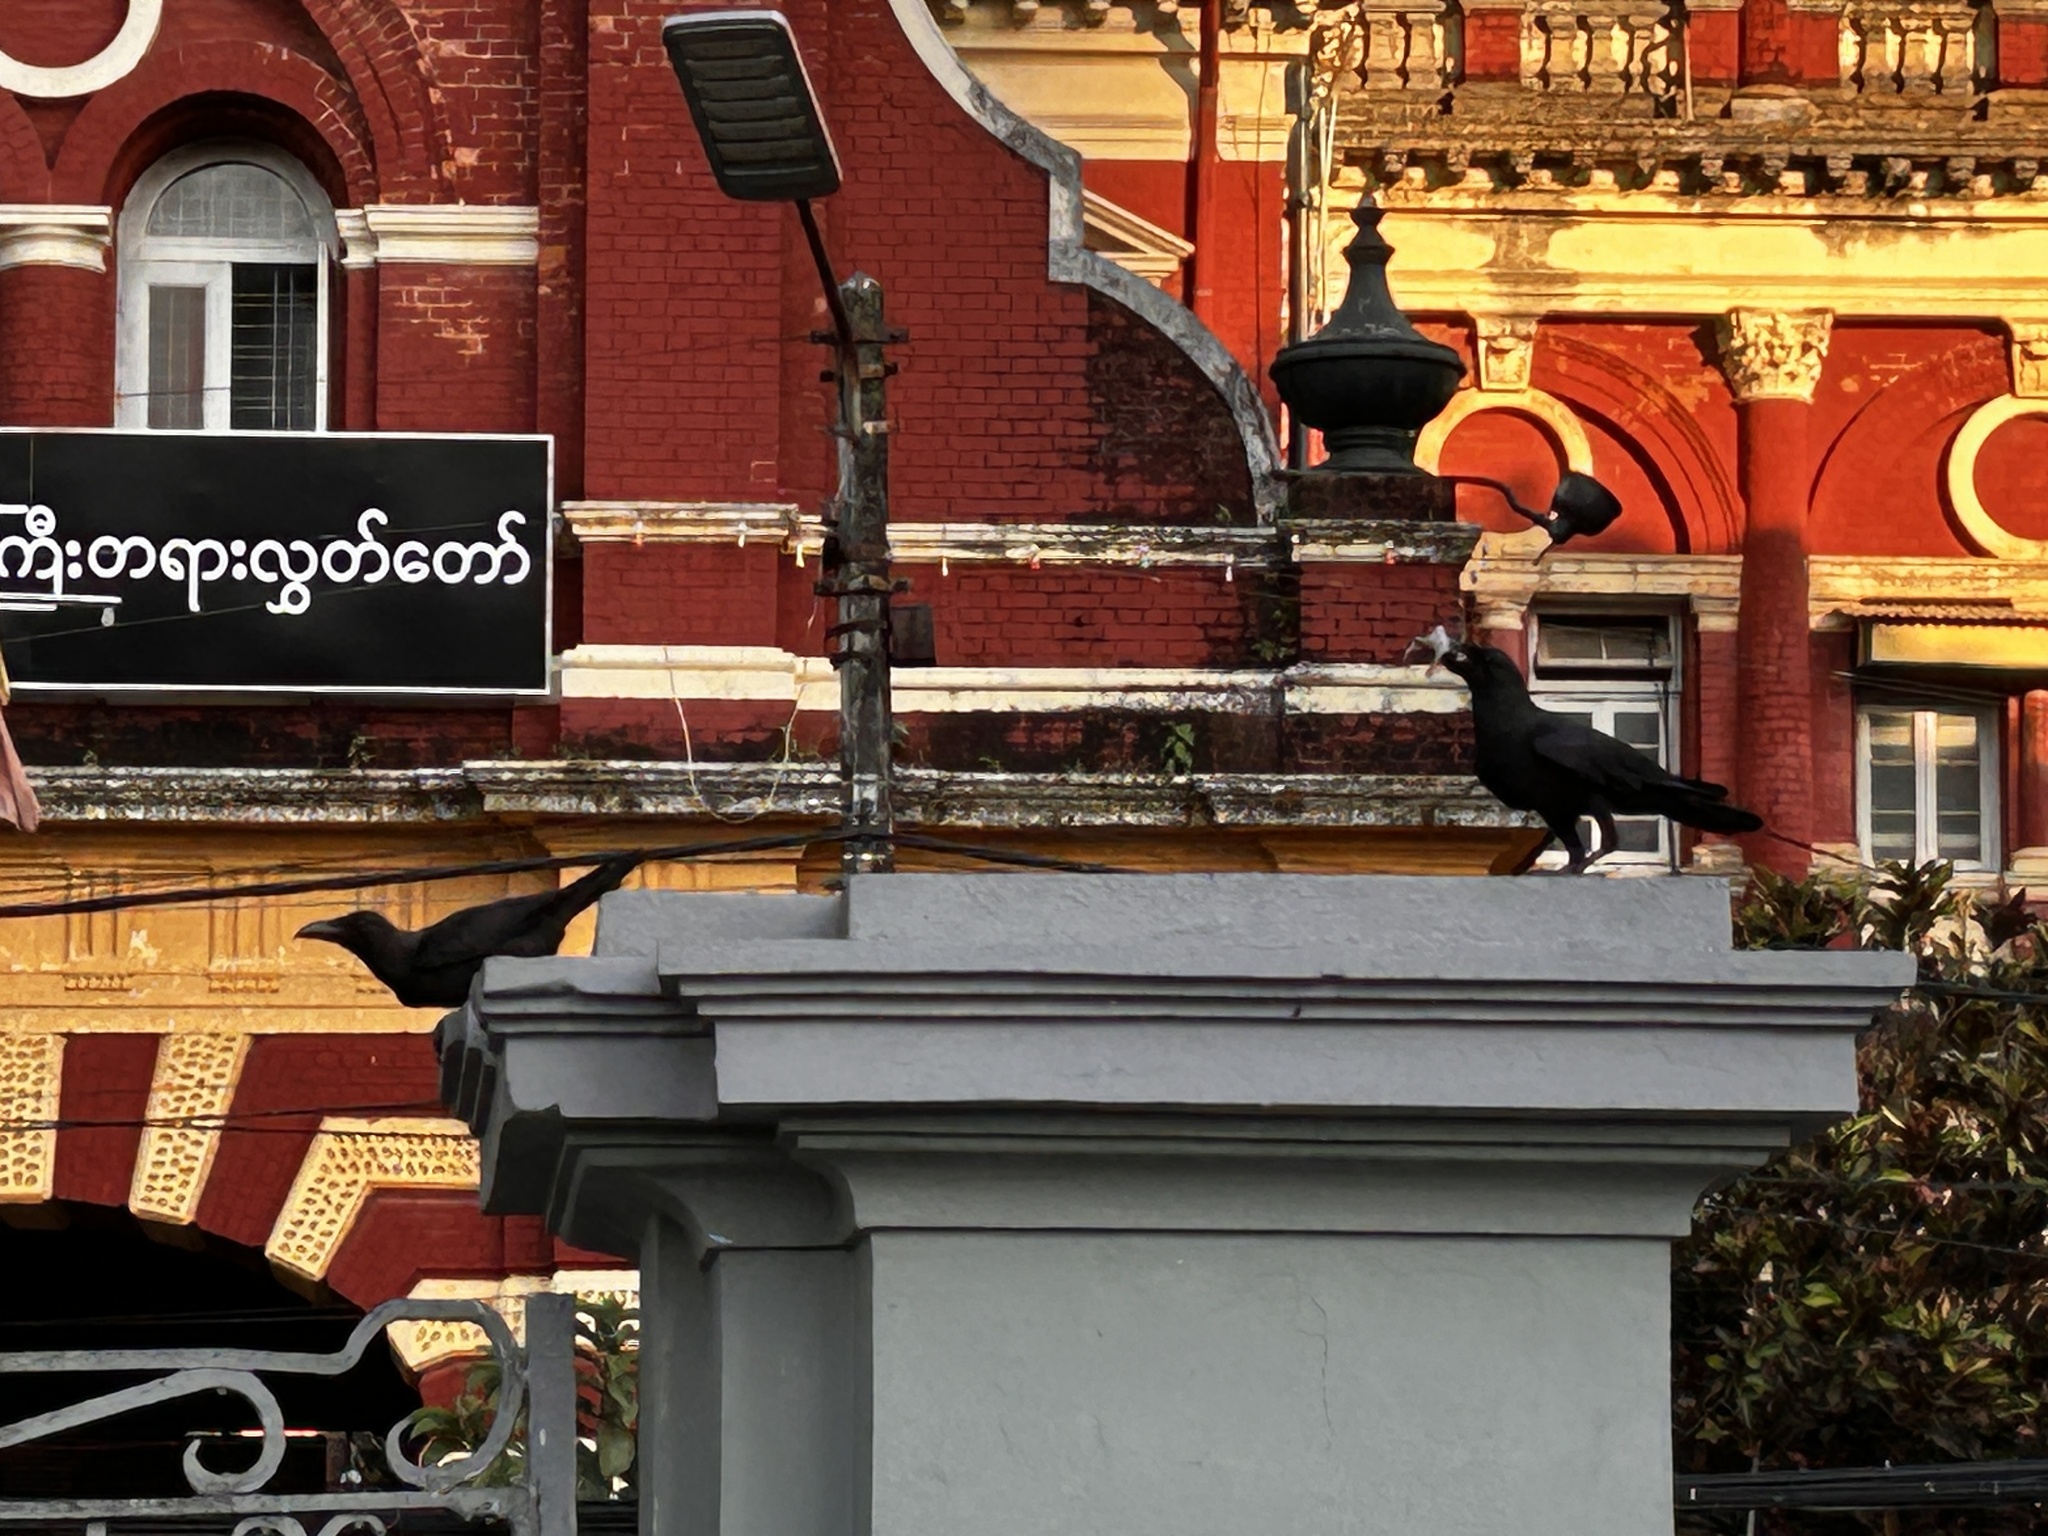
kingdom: Animalia
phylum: Chordata
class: Aves
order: Passeriformes
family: Corvidae
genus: Corvus
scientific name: Corvus splendens
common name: House crow
